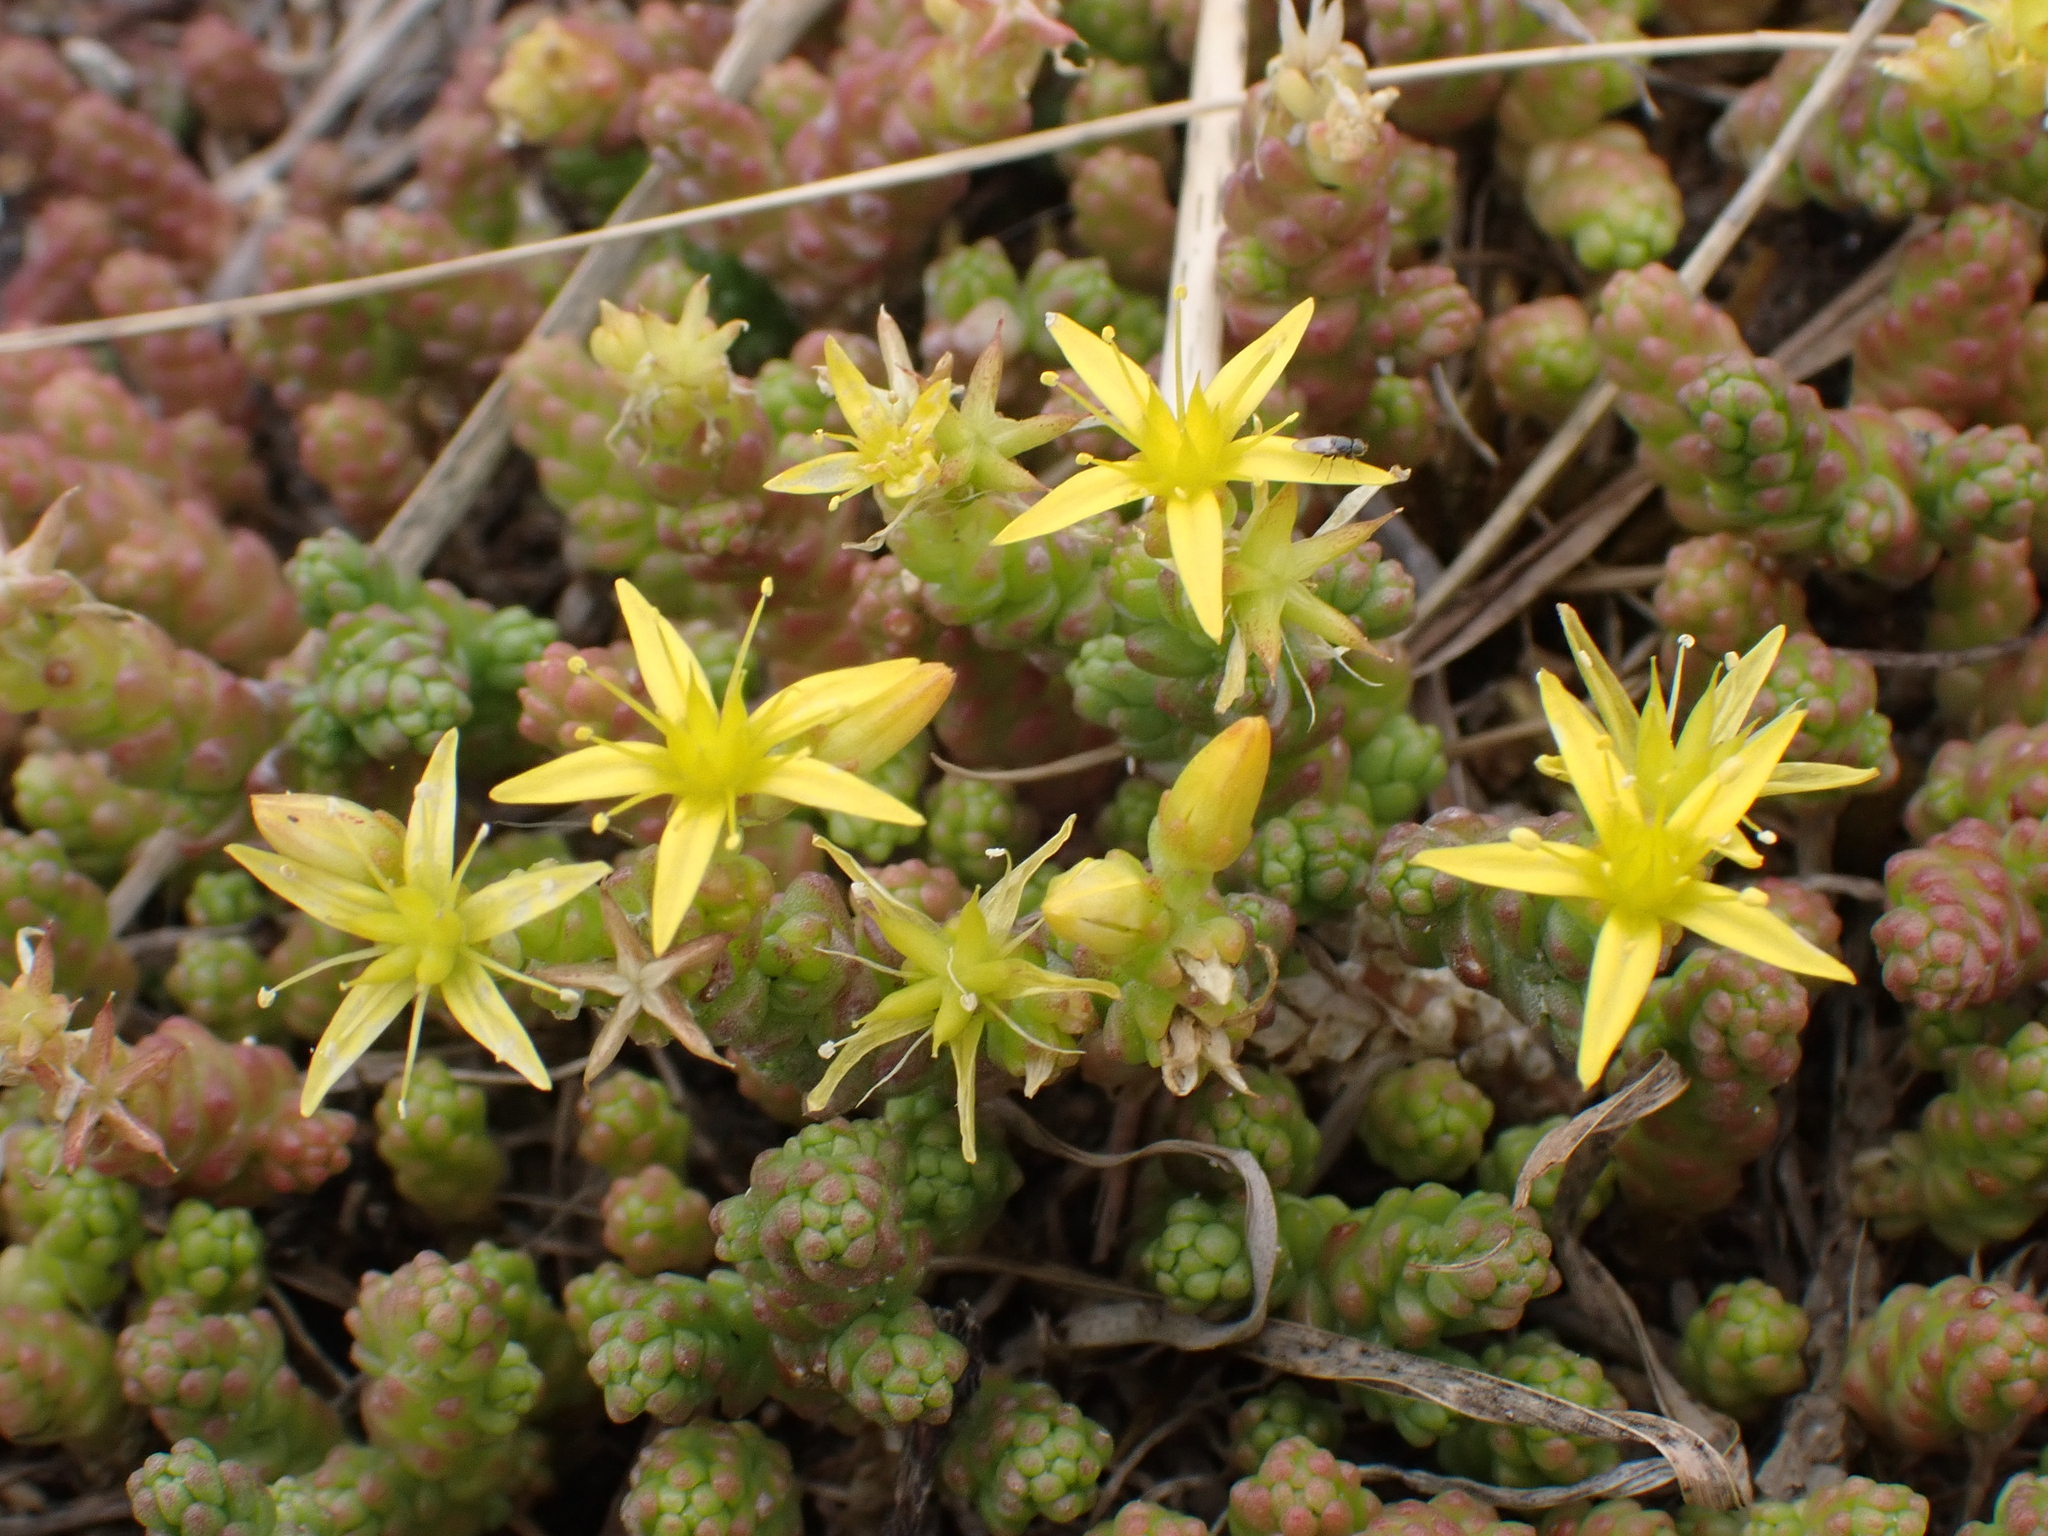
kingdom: Plantae
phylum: Tracheophyta
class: Magnoliopsida
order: Saxifragales
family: Crassulaceae
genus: Sedum
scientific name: Sedum acre
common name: Biting stonecrop
